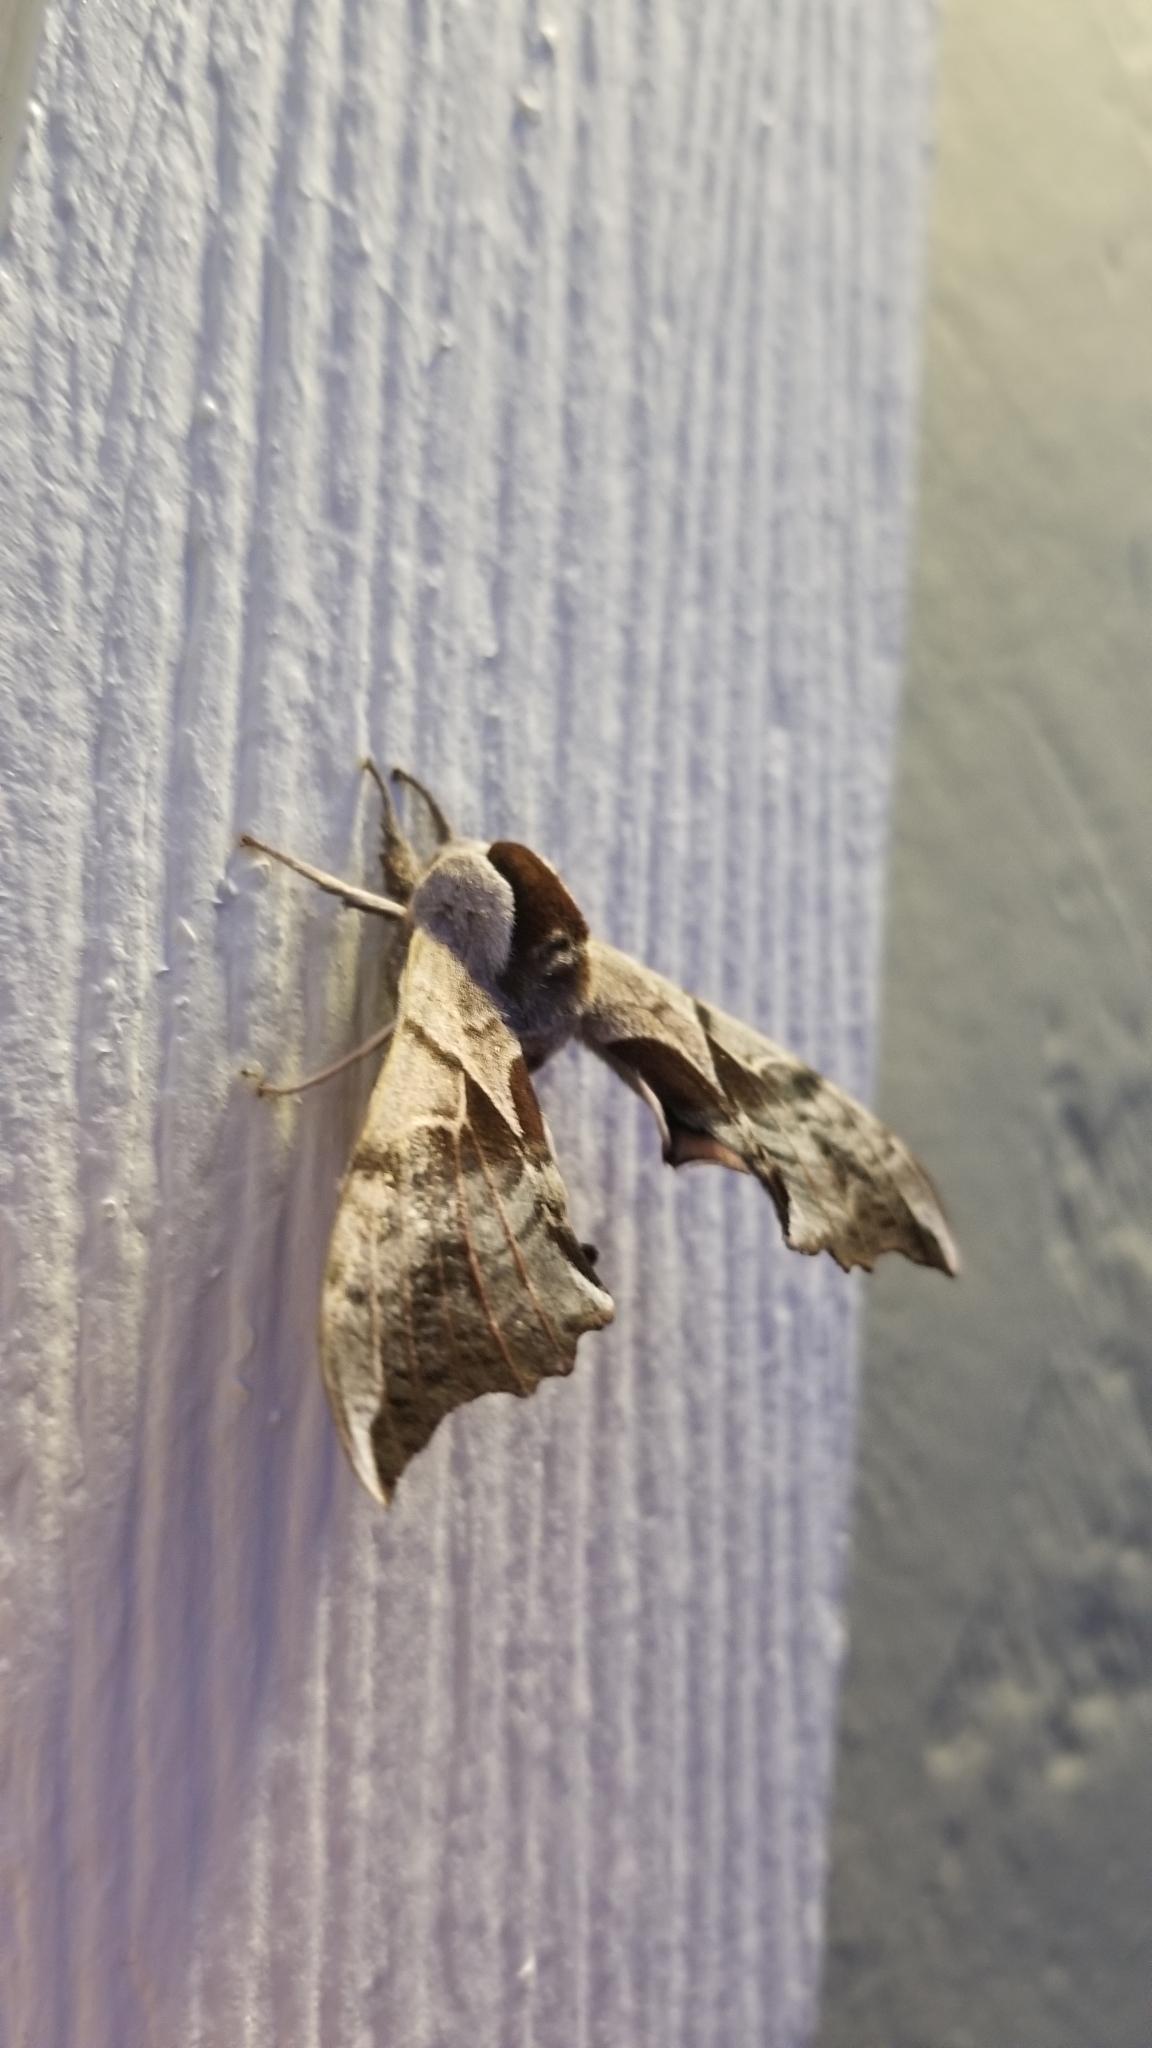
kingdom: Animalia
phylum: Arthropoda
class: Insecta
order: Lepidoptera
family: Sphingidae
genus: Smerinthus
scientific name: Smerinthus cerisyi
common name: Cerisy's sphinx moth
